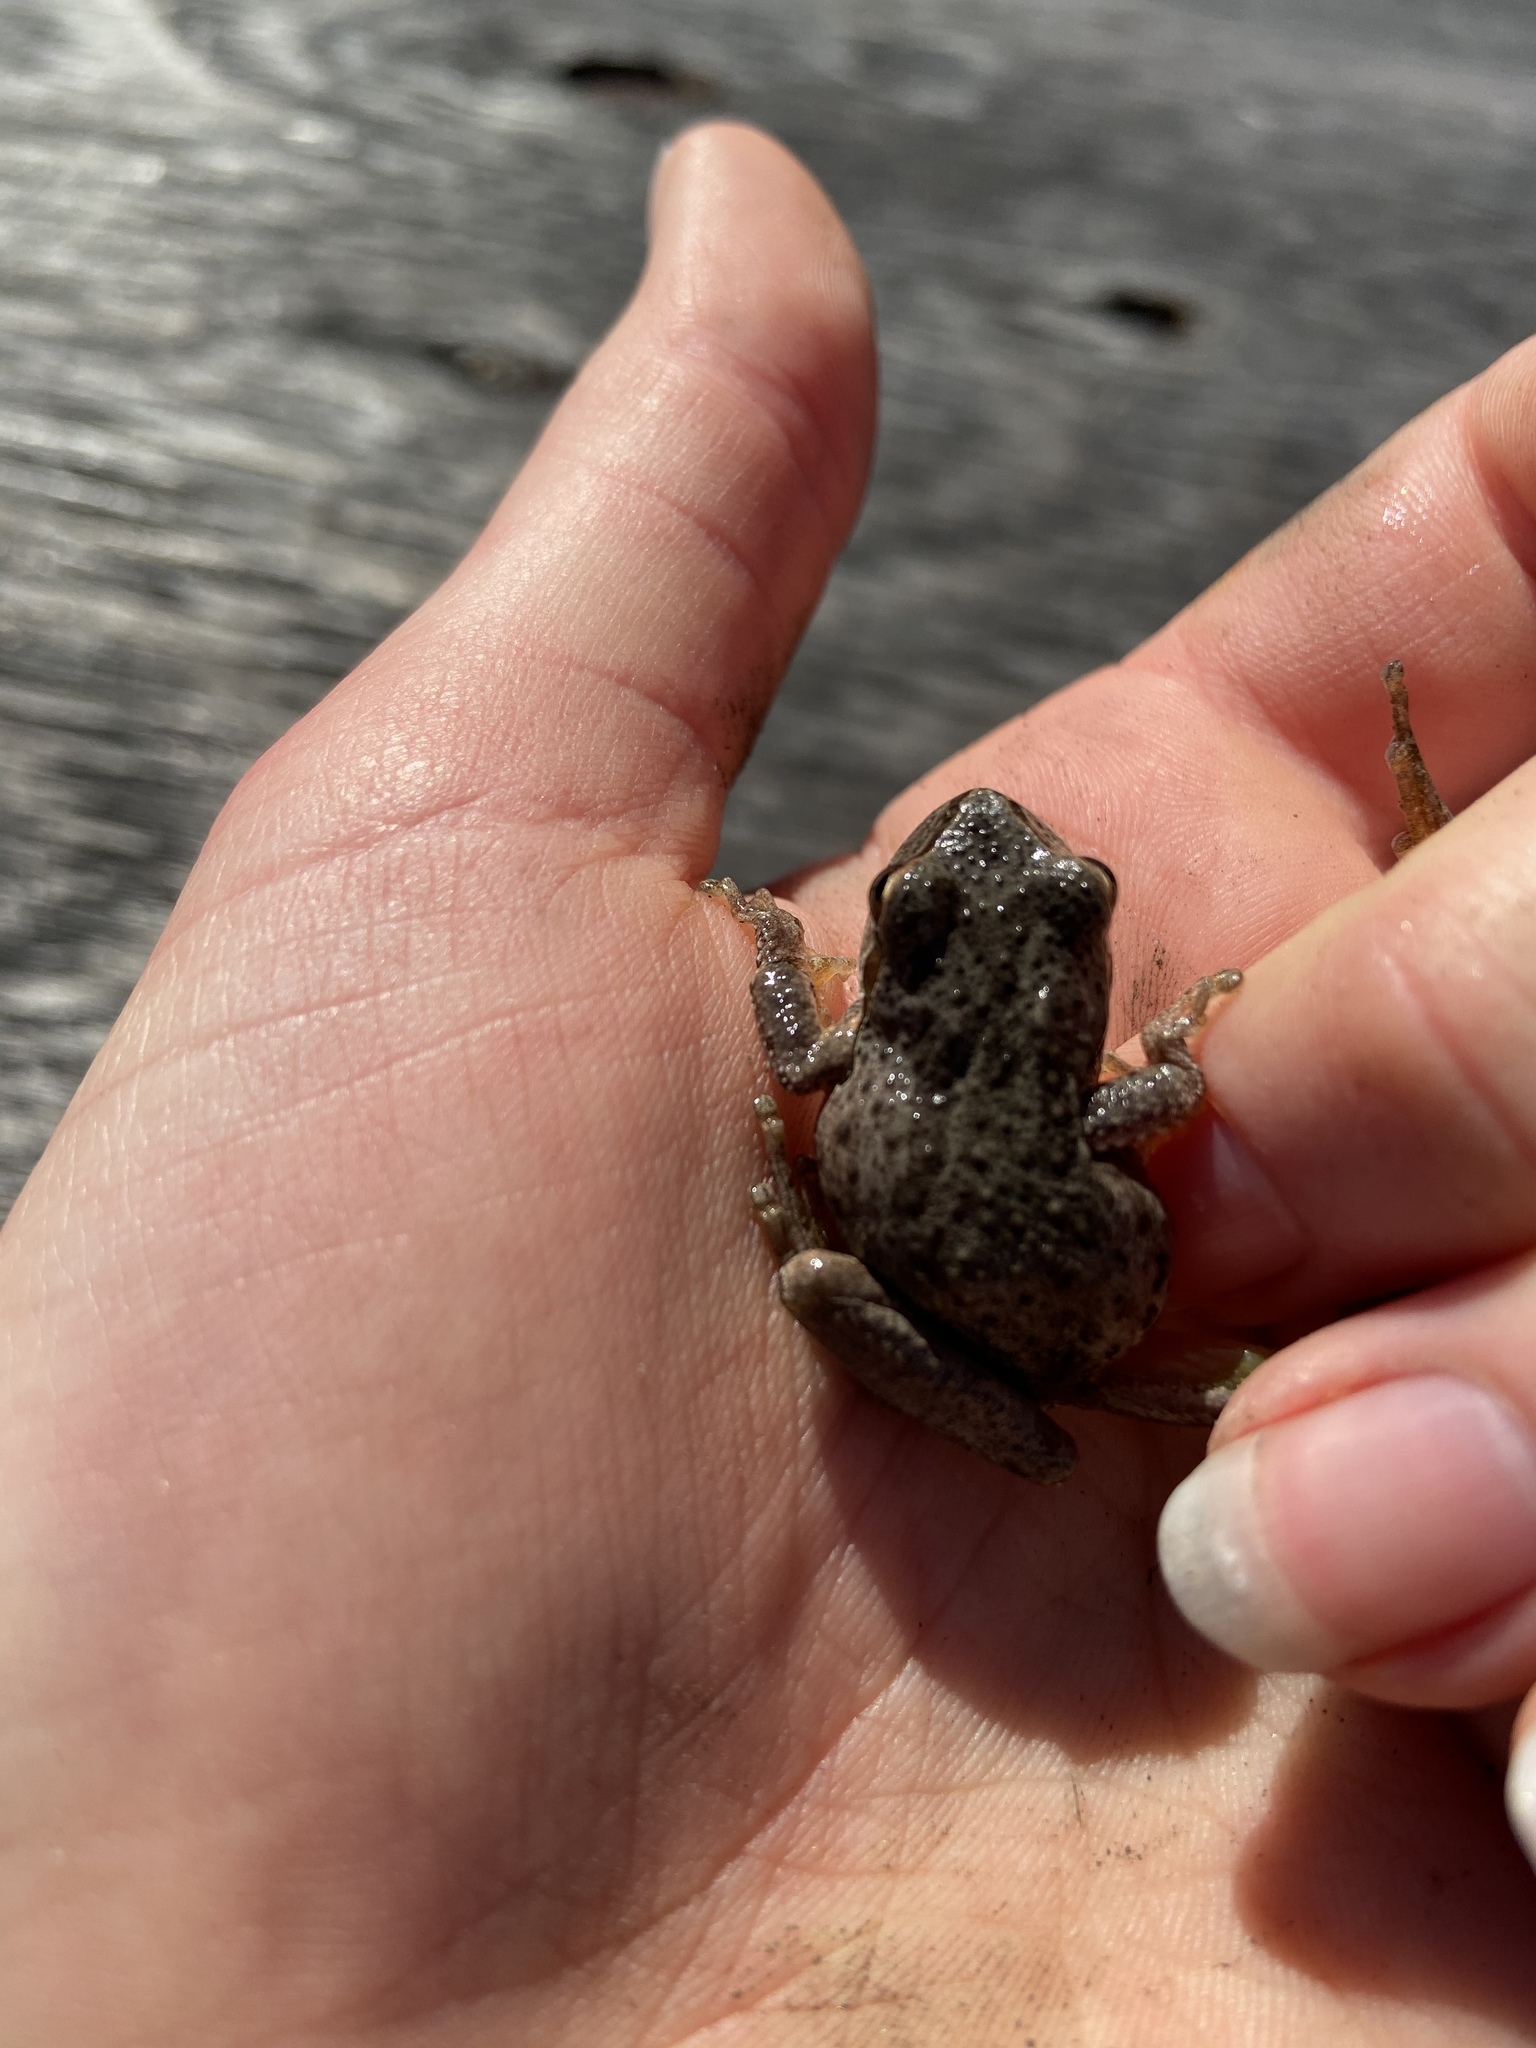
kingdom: Animalia
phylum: Chordata
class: Amphibia
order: Anura
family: Hylidae
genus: Pseudacris
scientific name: Pseudacris regilla
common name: Pacific chorus frog
